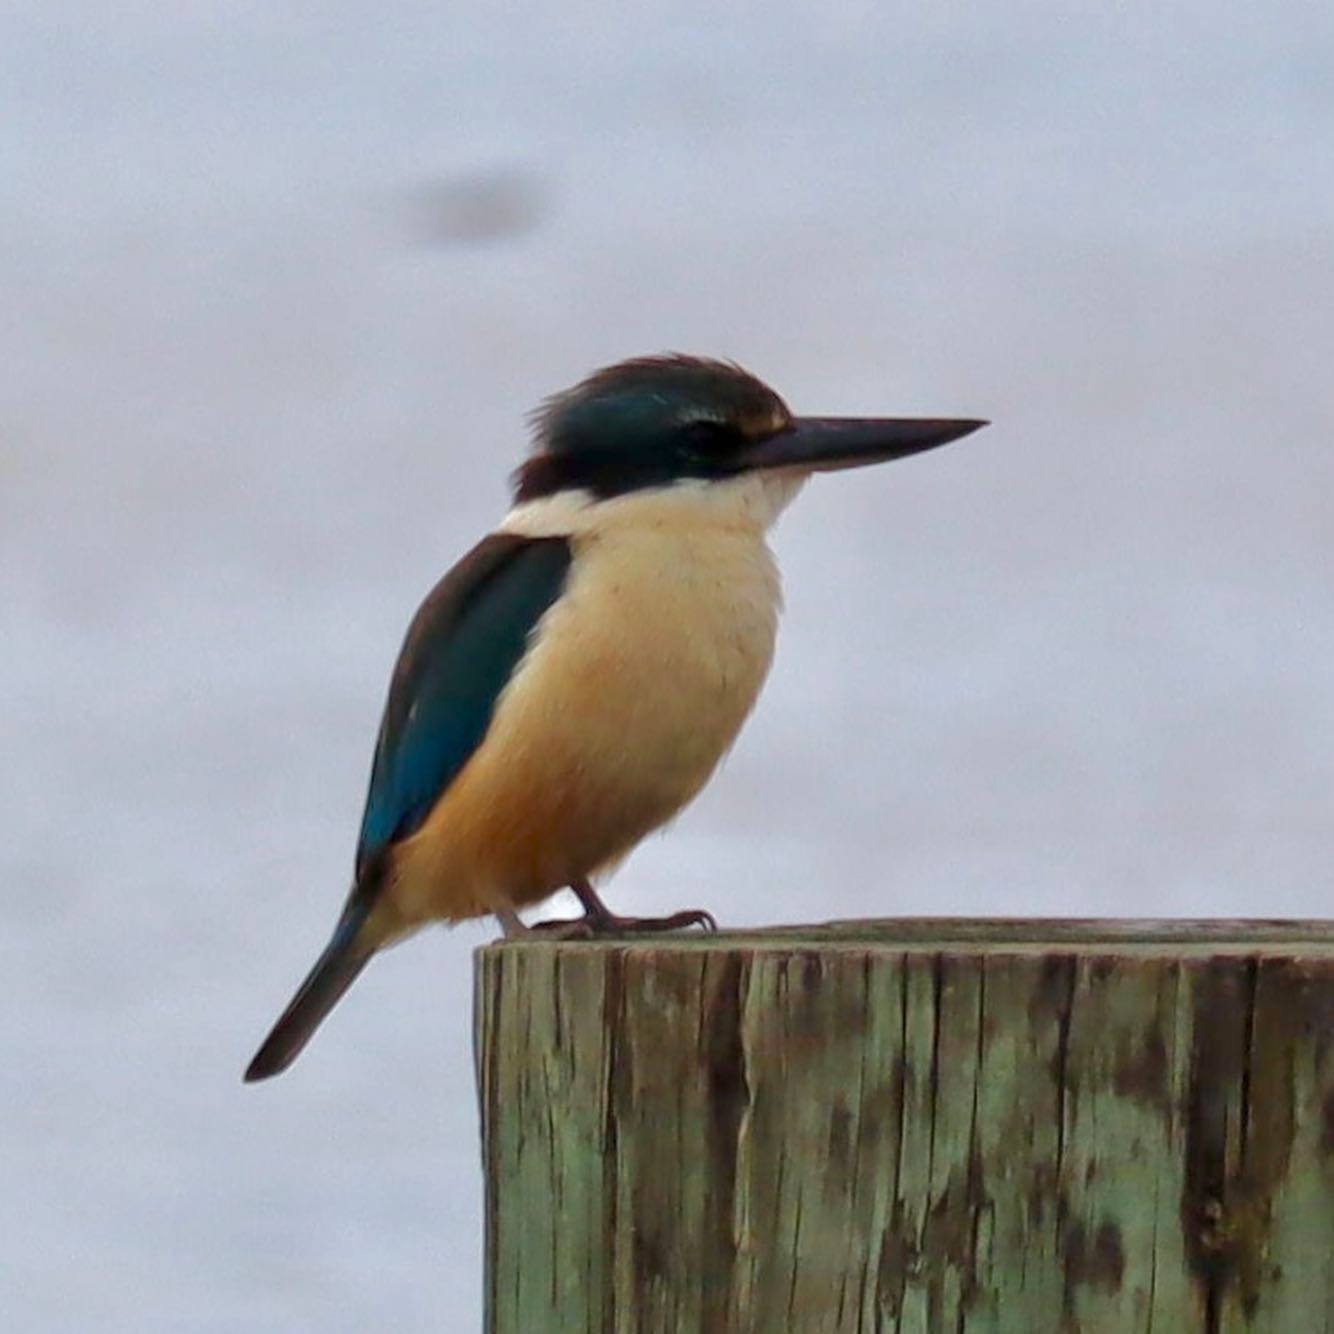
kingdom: Animalia
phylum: Chordata
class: Aves
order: Coraciiformes
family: Alcedinidae
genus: Todiramphus
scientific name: Todiramphus sanctus
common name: Sacred kingfisher
